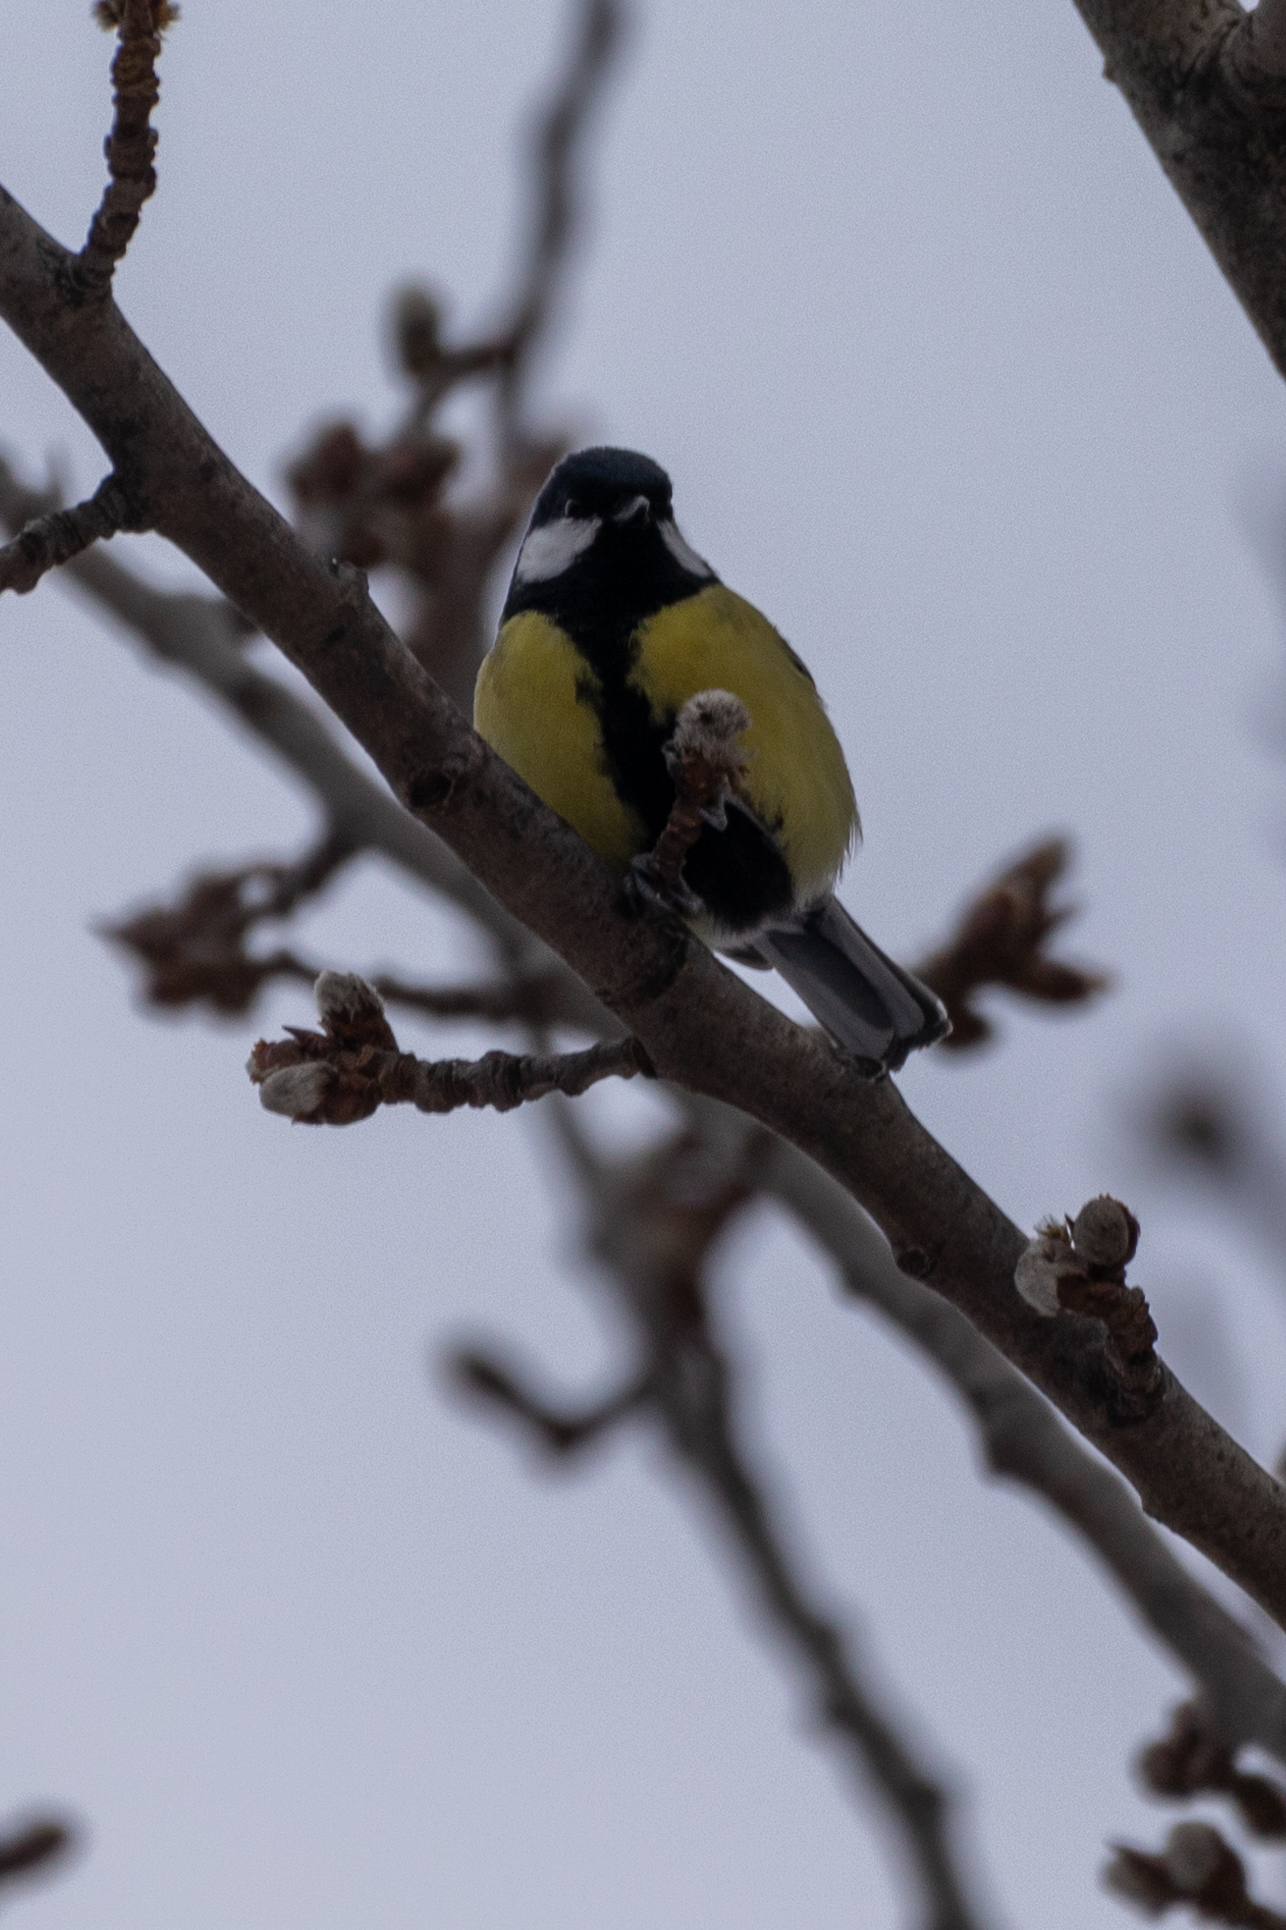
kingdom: Animalia
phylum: Chordata
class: Aves
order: Passeriformes
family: Paridae
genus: Parus
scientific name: Parus major
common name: Great tit
